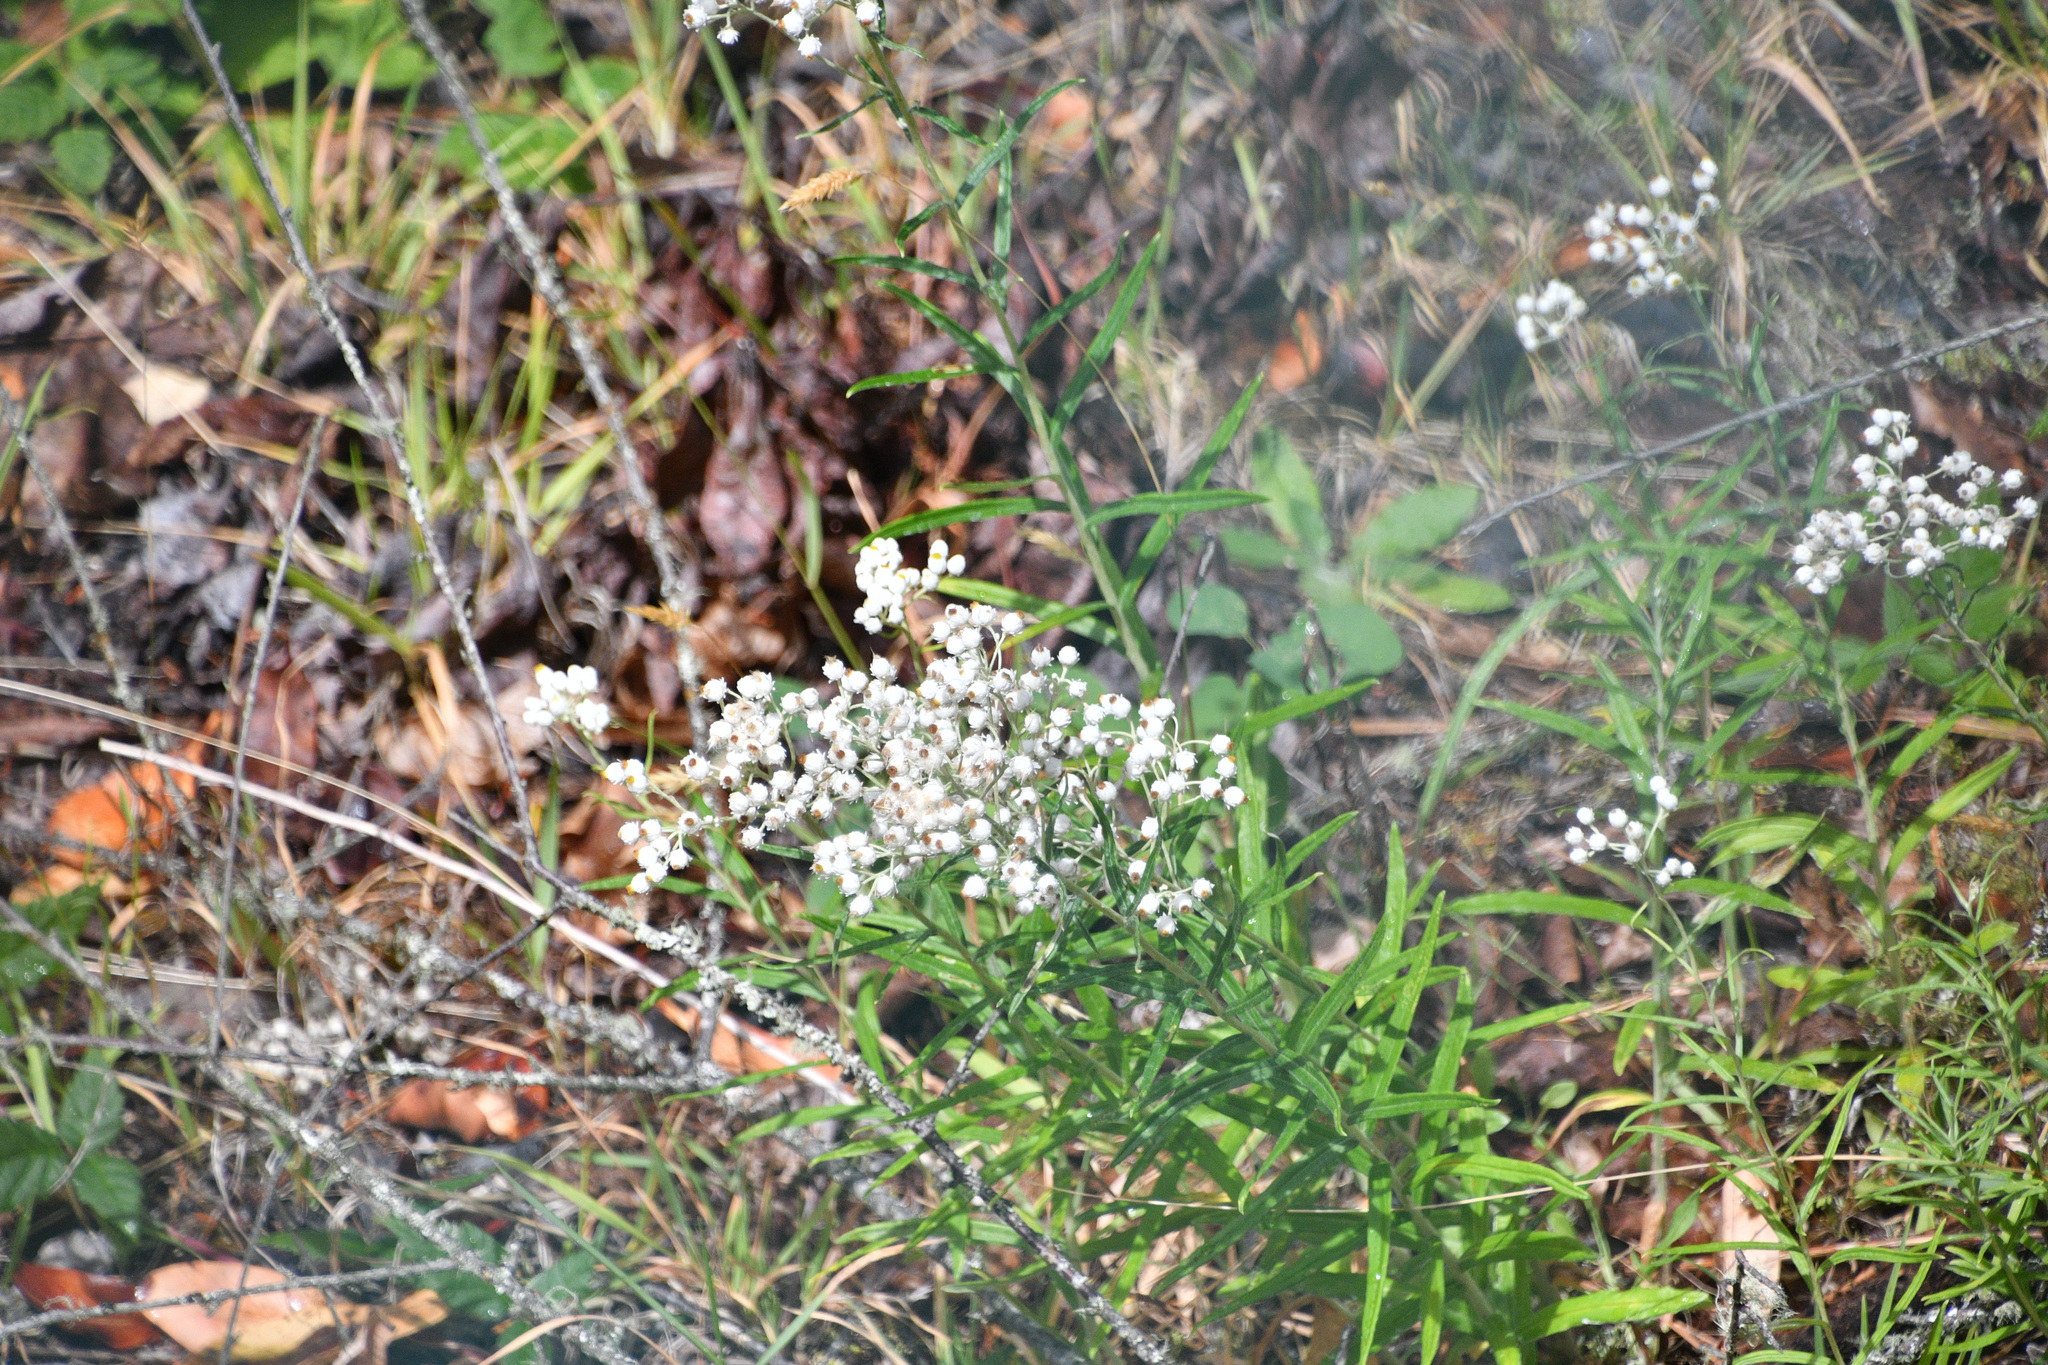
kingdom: Plantae
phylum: Tracheophyta
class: Magnoliopsida
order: Asterales
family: Asteraceae
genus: Anaphalis
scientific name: Anaphalis margaritacea
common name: Pearly everlasting
